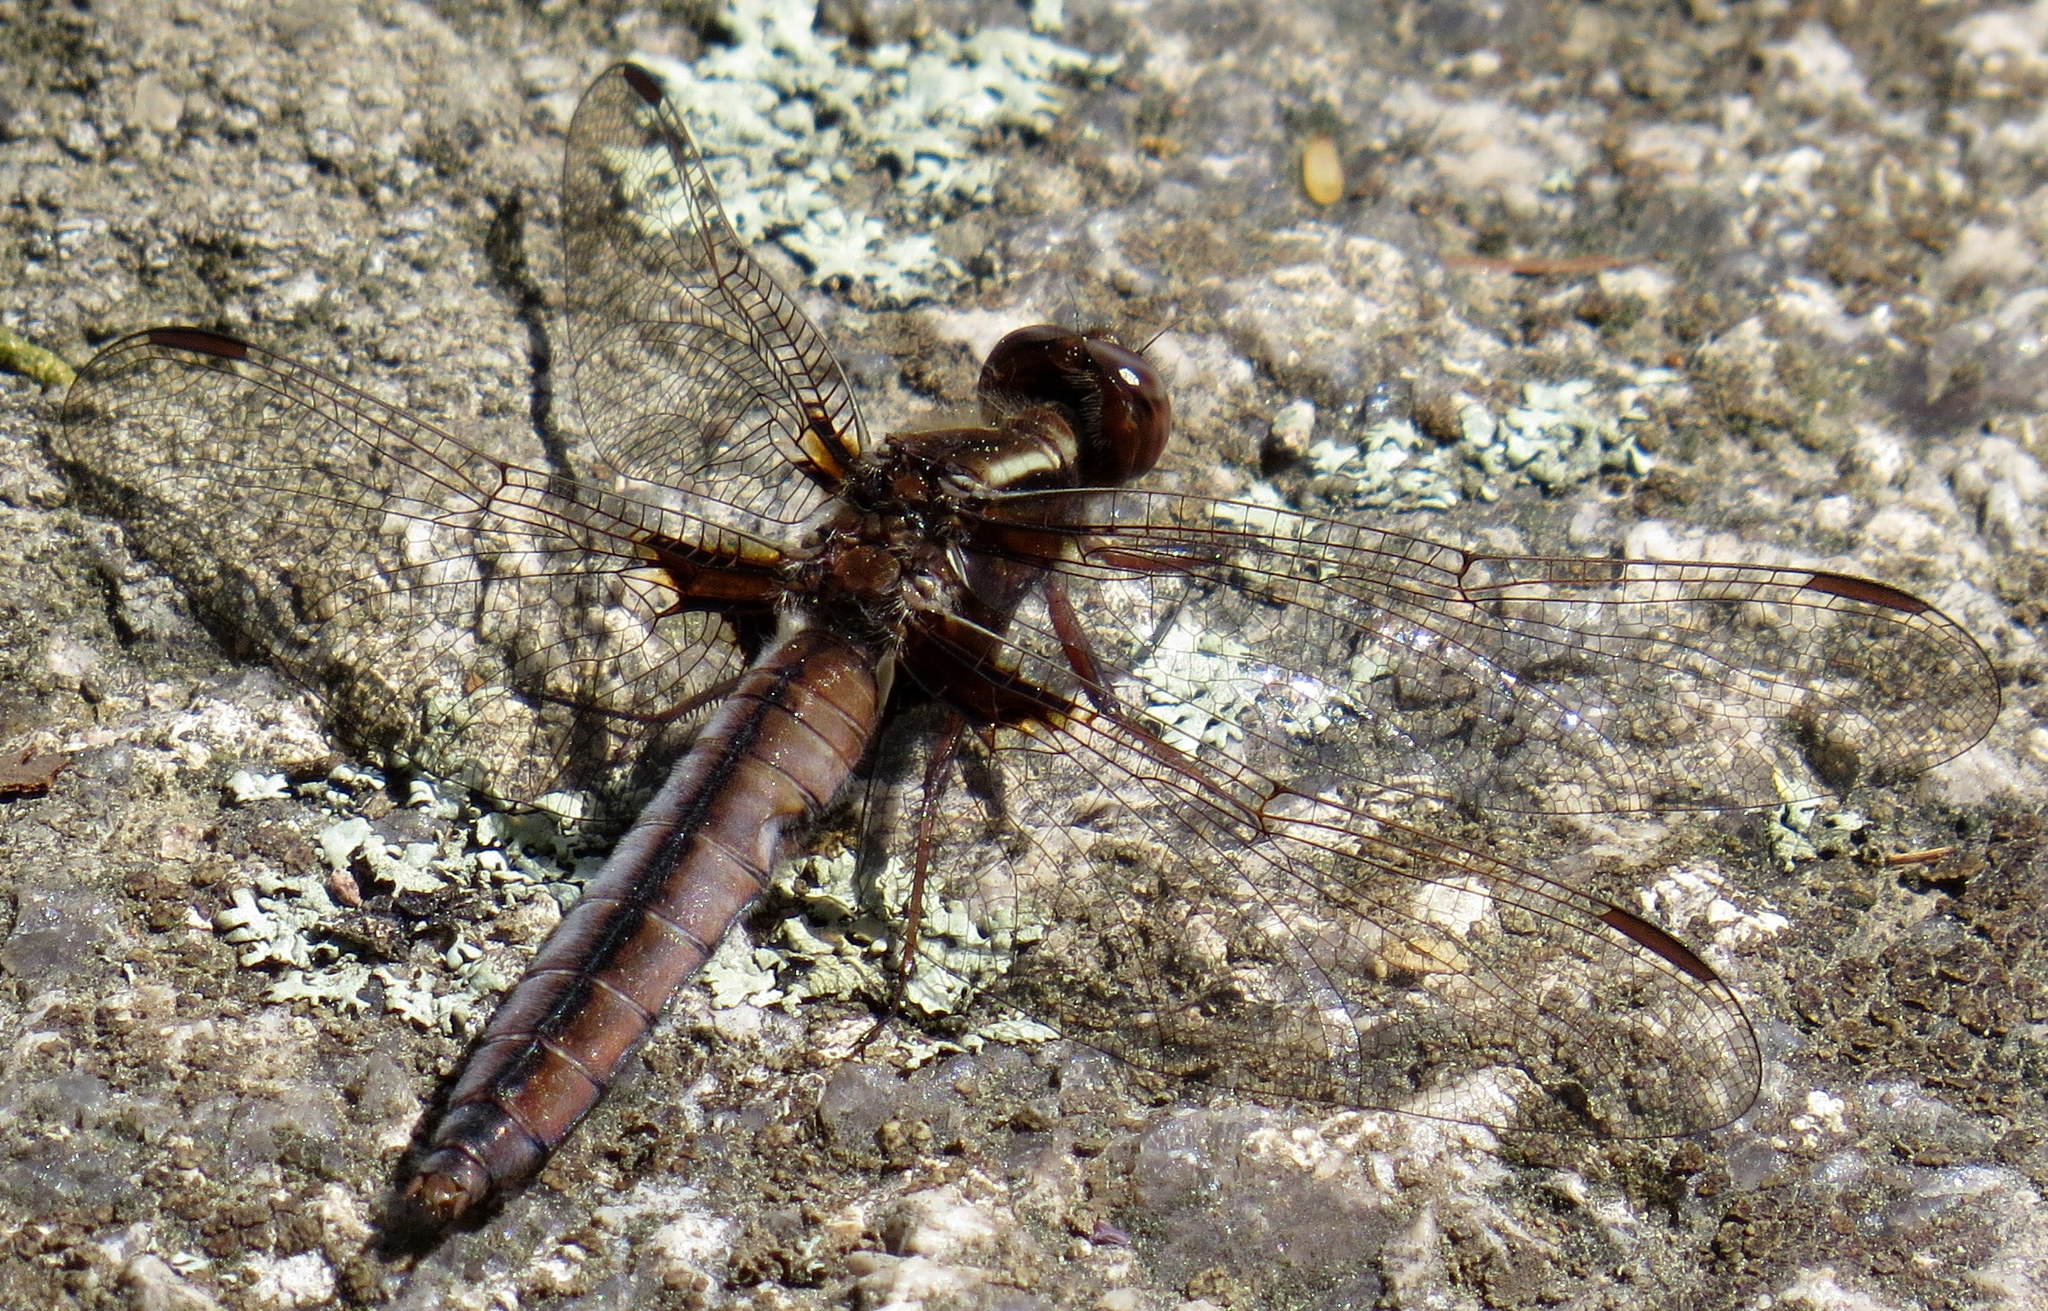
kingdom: Animalia
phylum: Arthropoda
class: Insecta
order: Odonata
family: Libellulidae
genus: Ladona
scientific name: Ladona exusta
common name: Libellule embrasée
